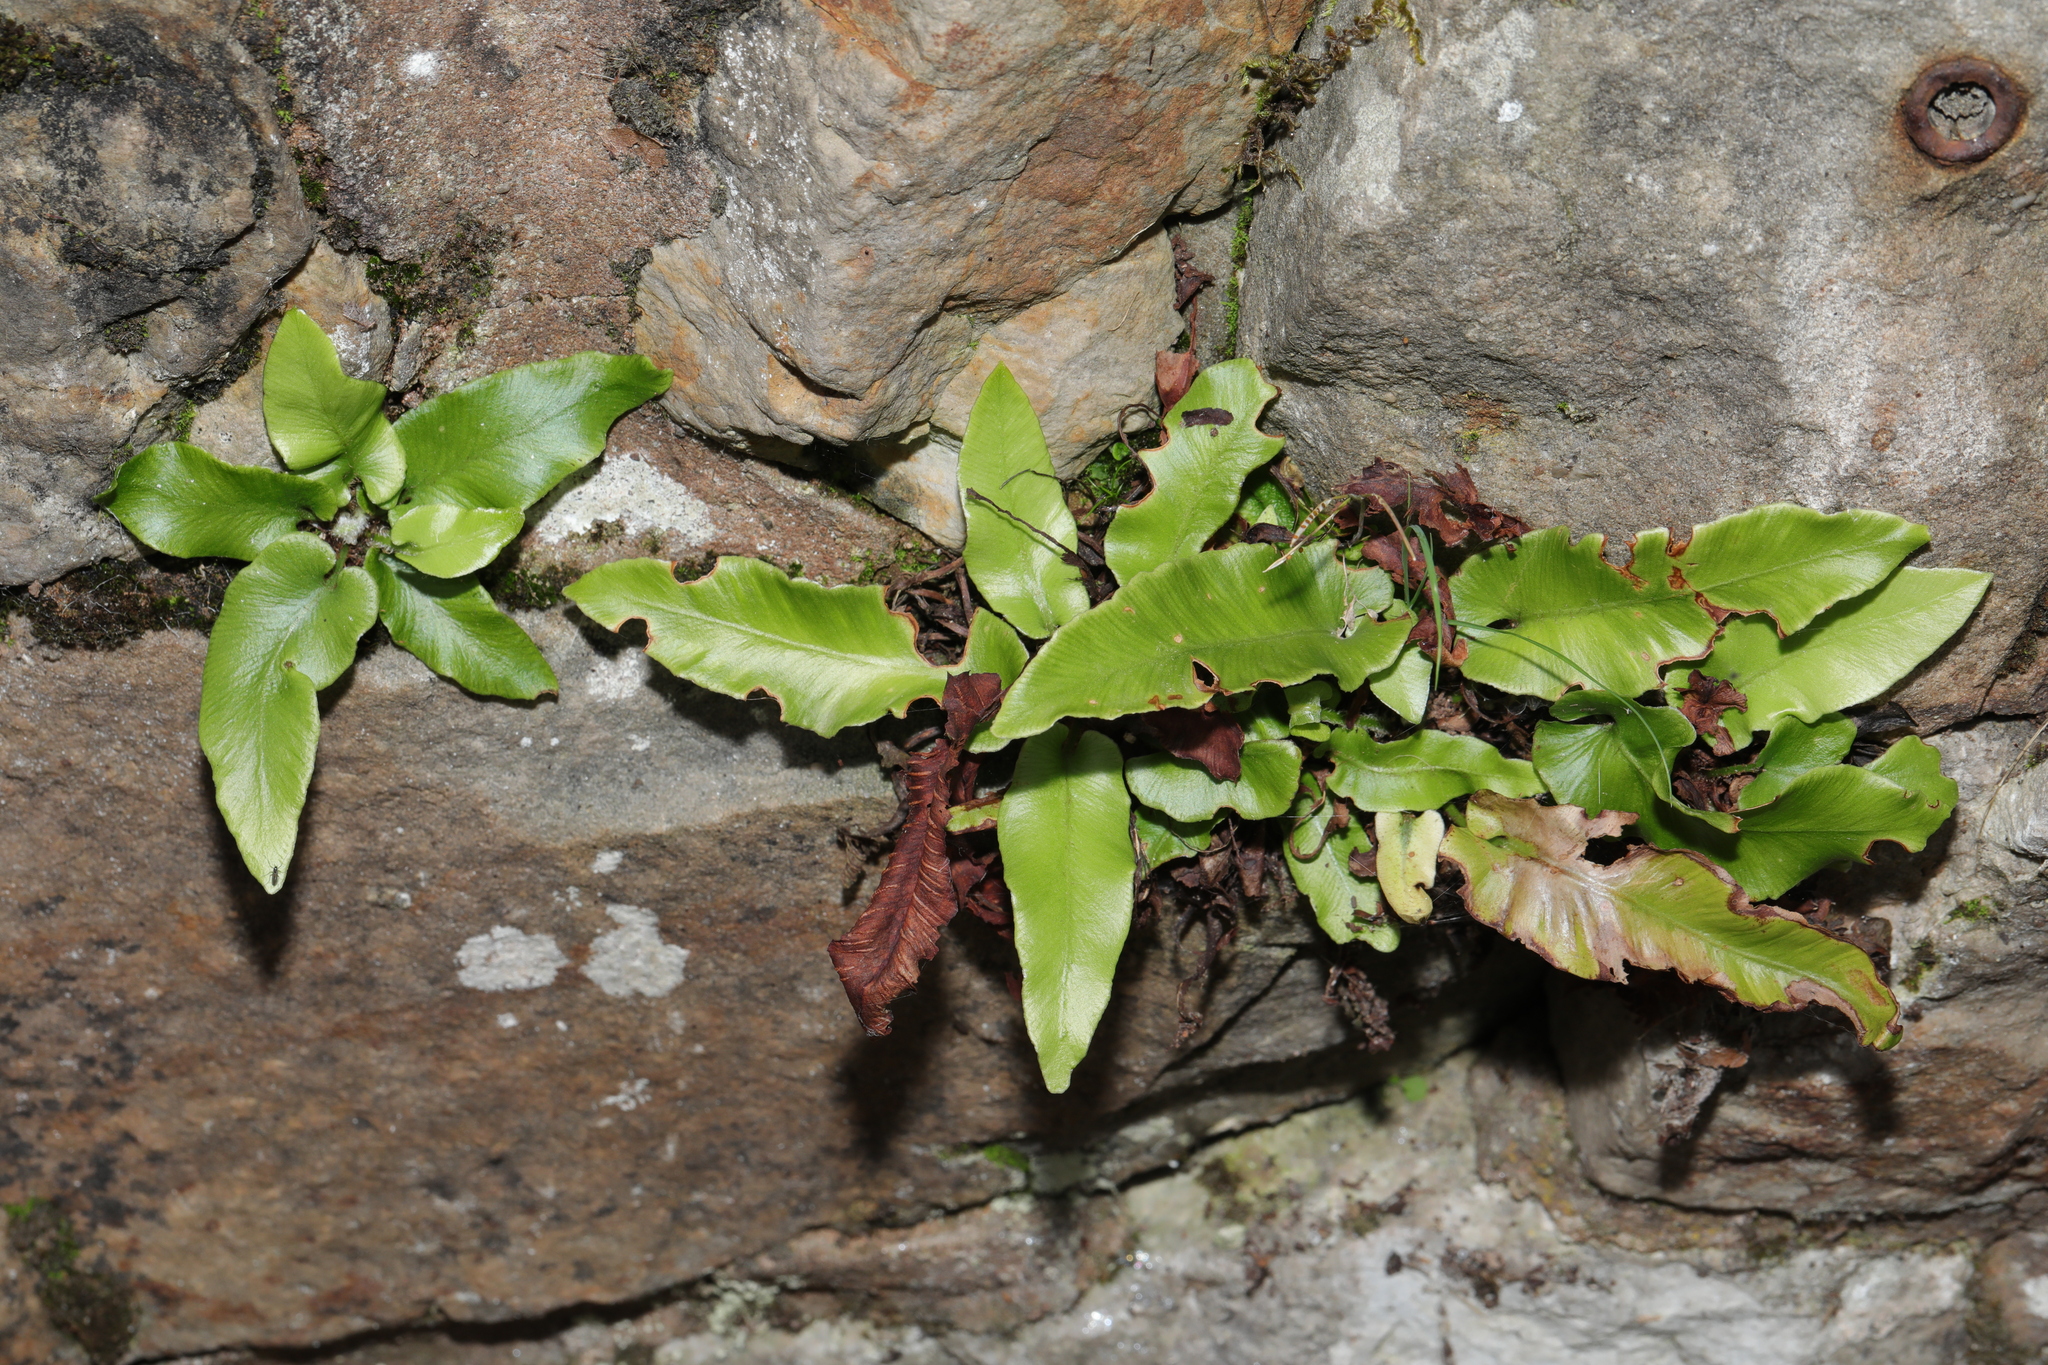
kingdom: Plantae
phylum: Tracheophyta
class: Polypodiopsida
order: Polypodiales
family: Aspleniaceae
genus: Asplenium
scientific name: Asplenium scolopendrium
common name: Hart's-tongue fern
